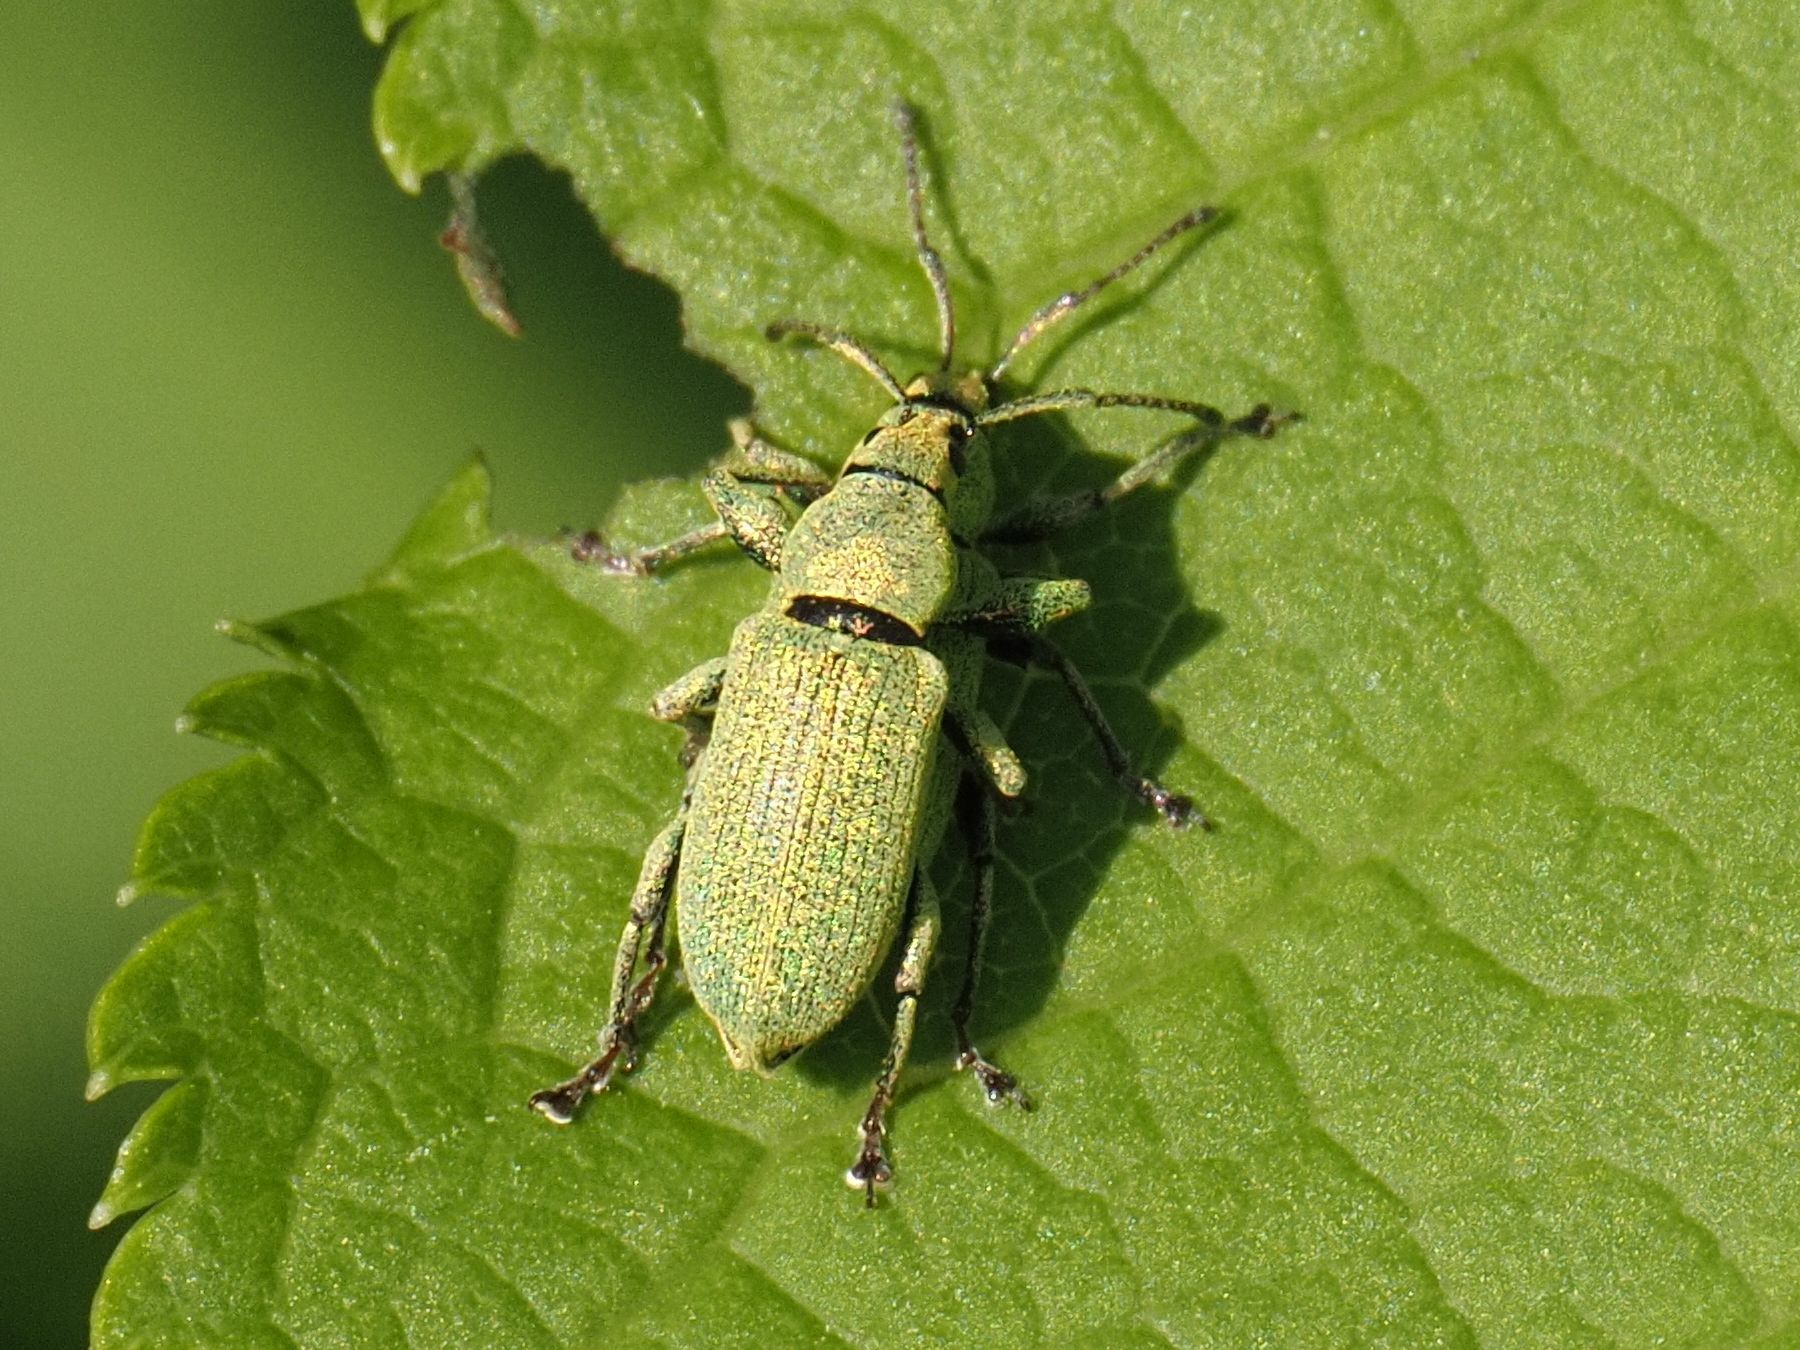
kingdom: Animalia
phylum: Arthropoda
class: Insecta
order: Coleoptera
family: Curculionidae
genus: Phyllobius
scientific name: Phyllobius maculicornis
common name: Green leaf weevil
